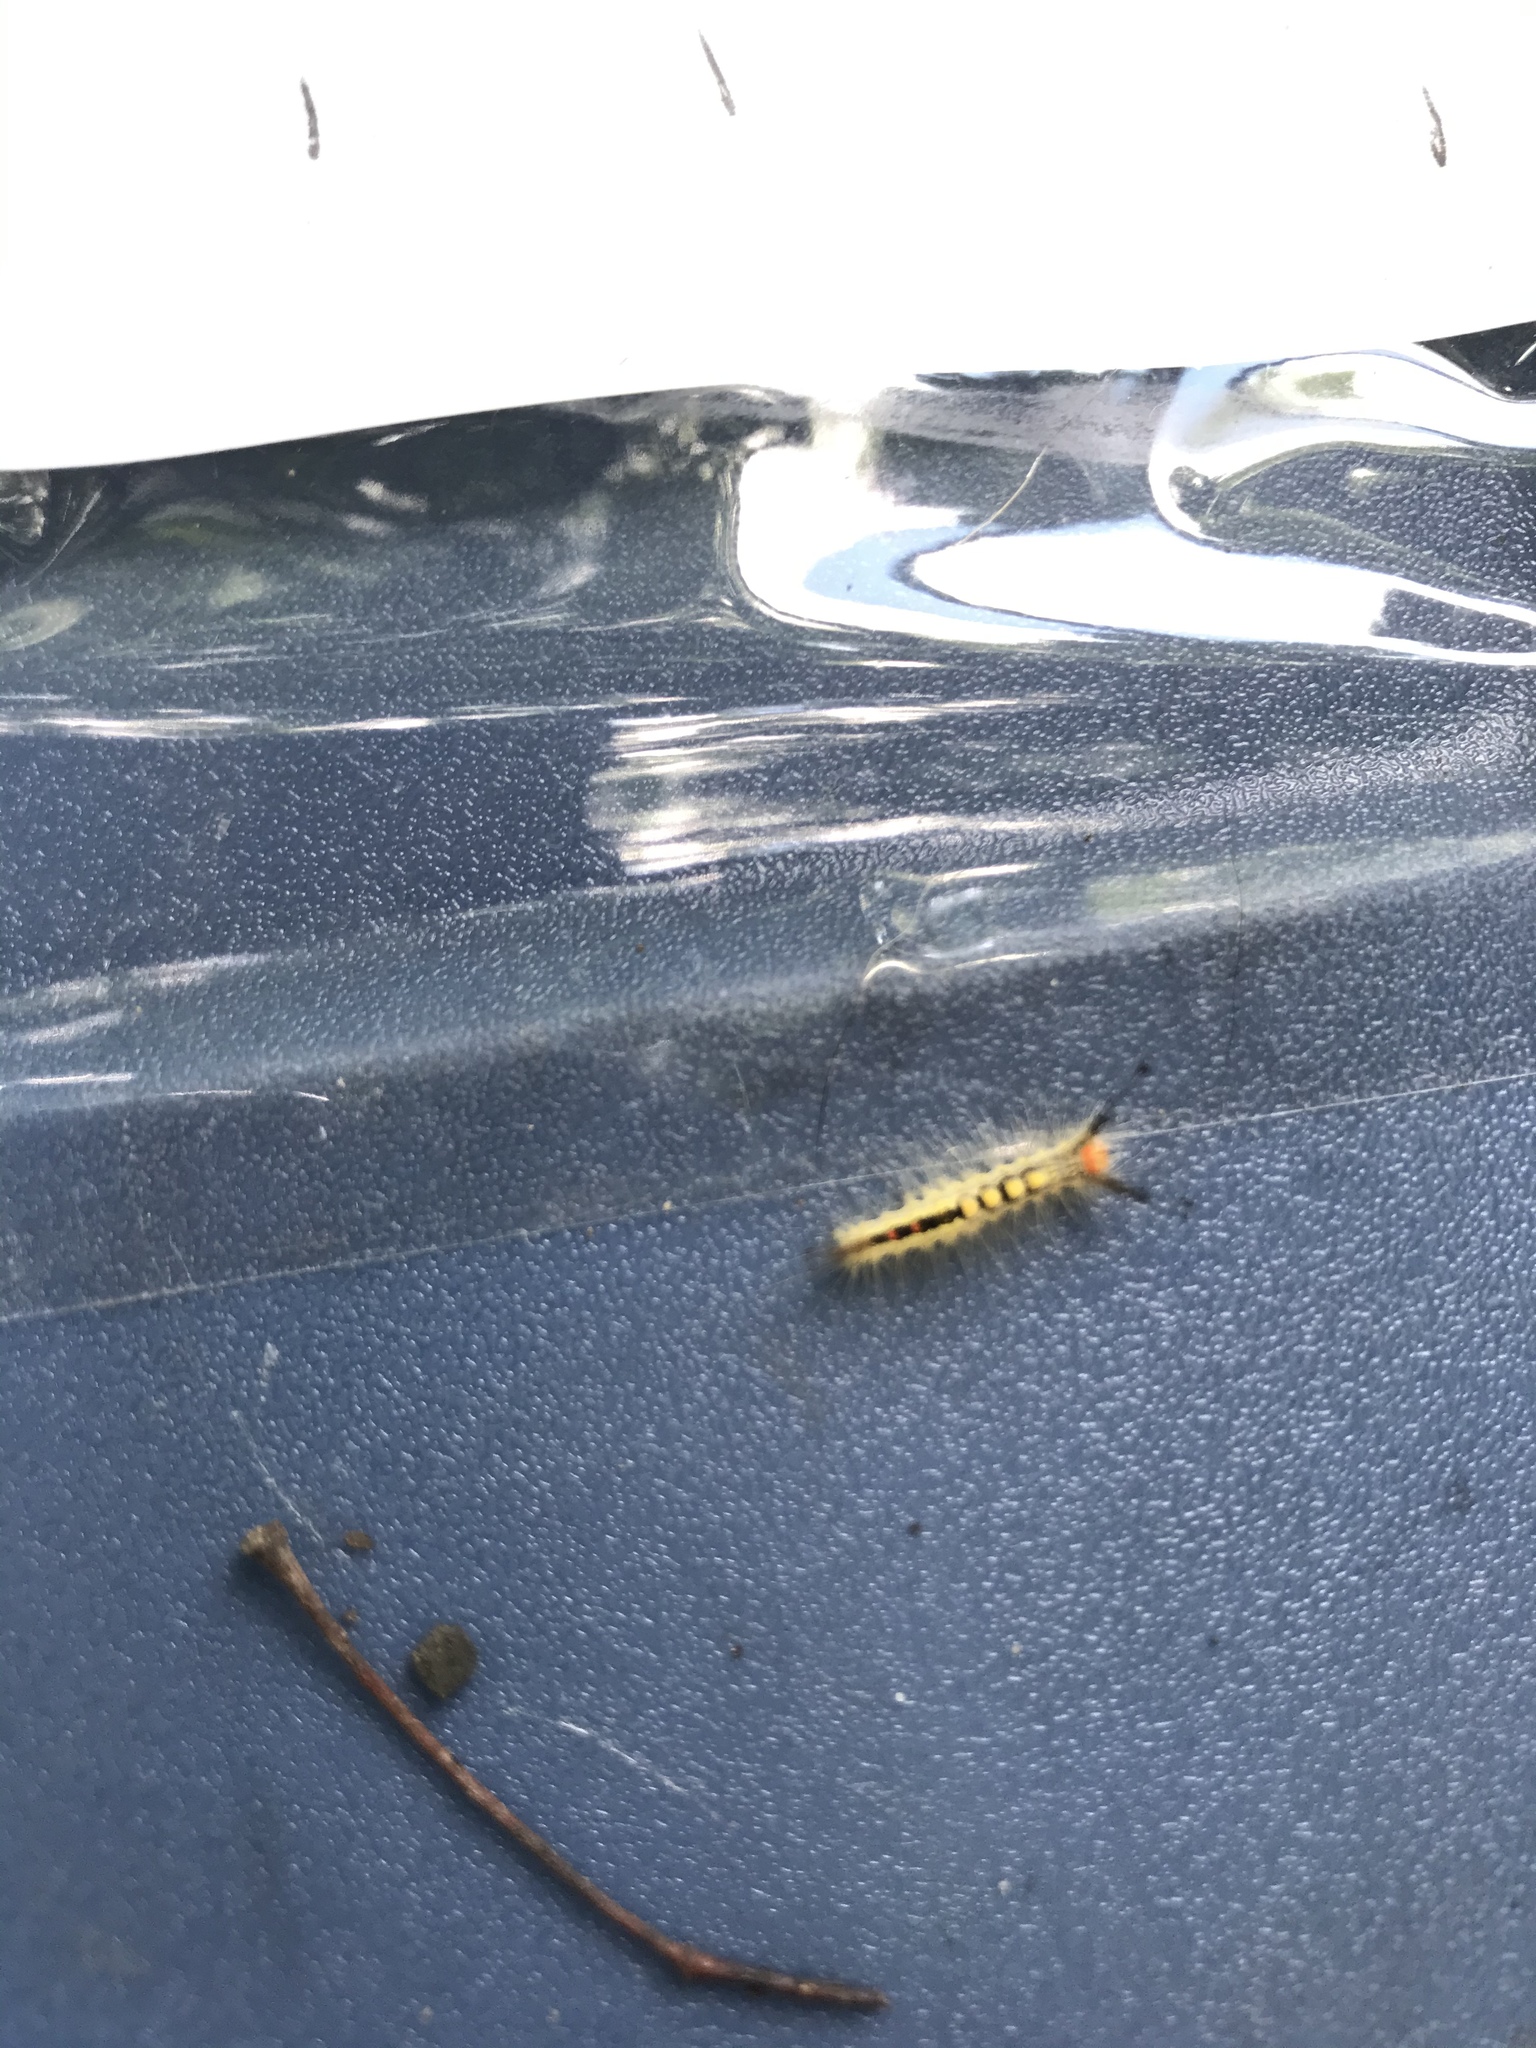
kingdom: Animalia
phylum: Arthropoda
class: Insecta
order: Lepidoptera
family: Erebidae
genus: Orgyia
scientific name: Orgyia leucostigma
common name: White-marked tussock moth
